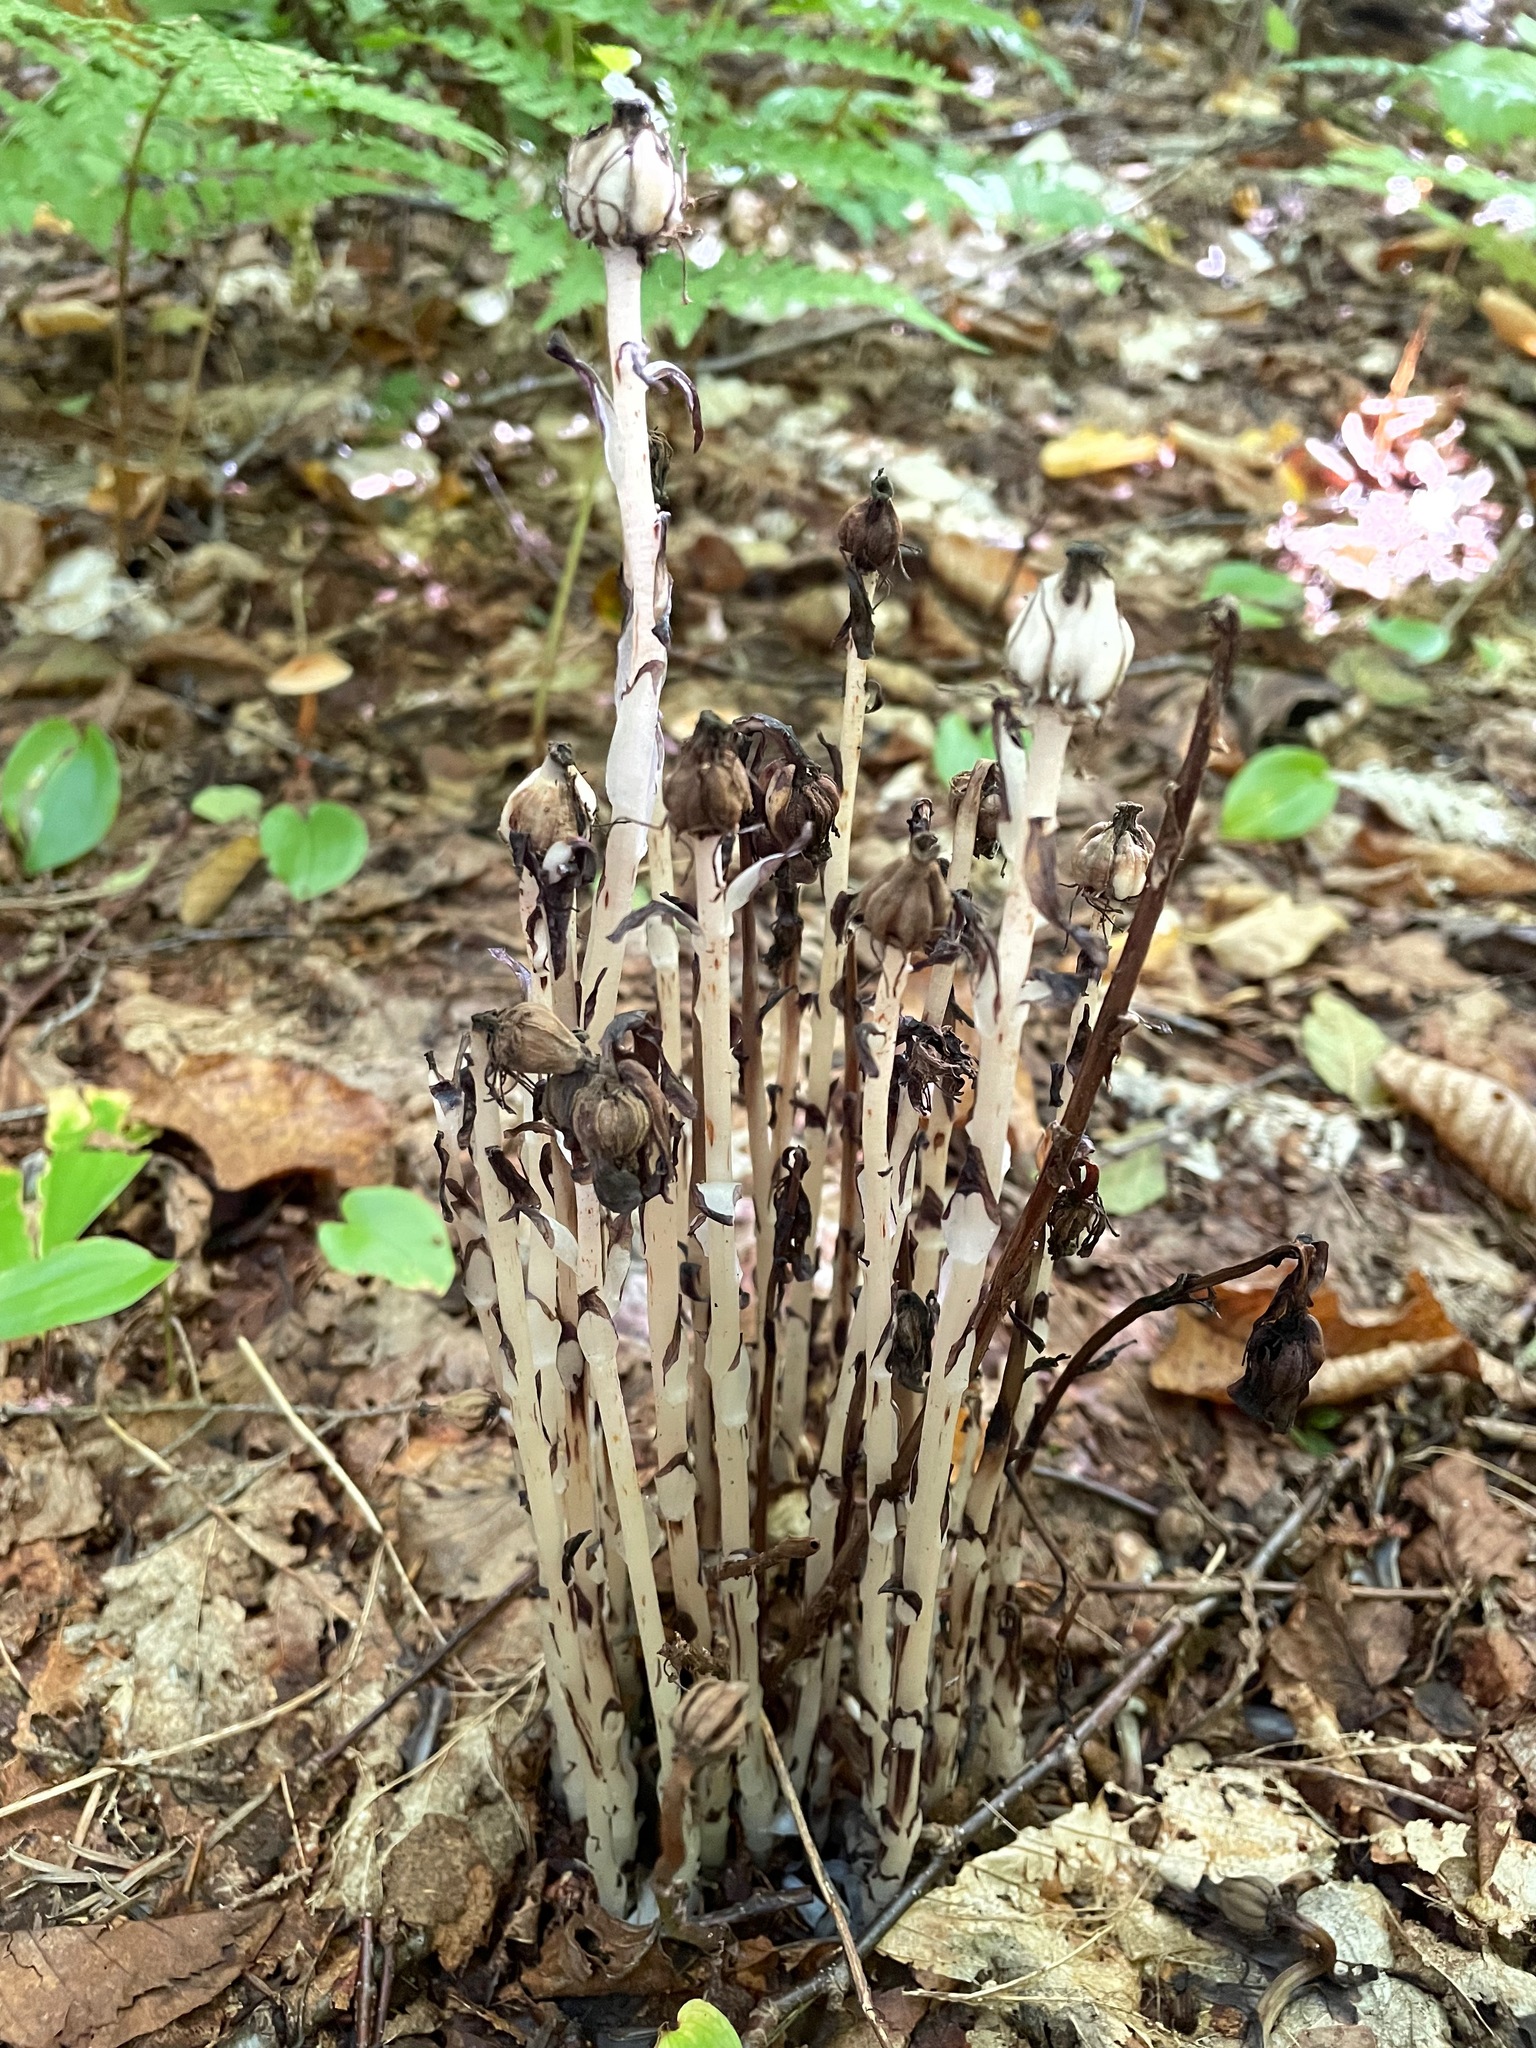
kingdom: Plantae
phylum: Tracheophyta
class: Magnoliopsida
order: Ericales
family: Ericaceae
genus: Monotropa
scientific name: Monotropa uniflora
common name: Convulsion root
